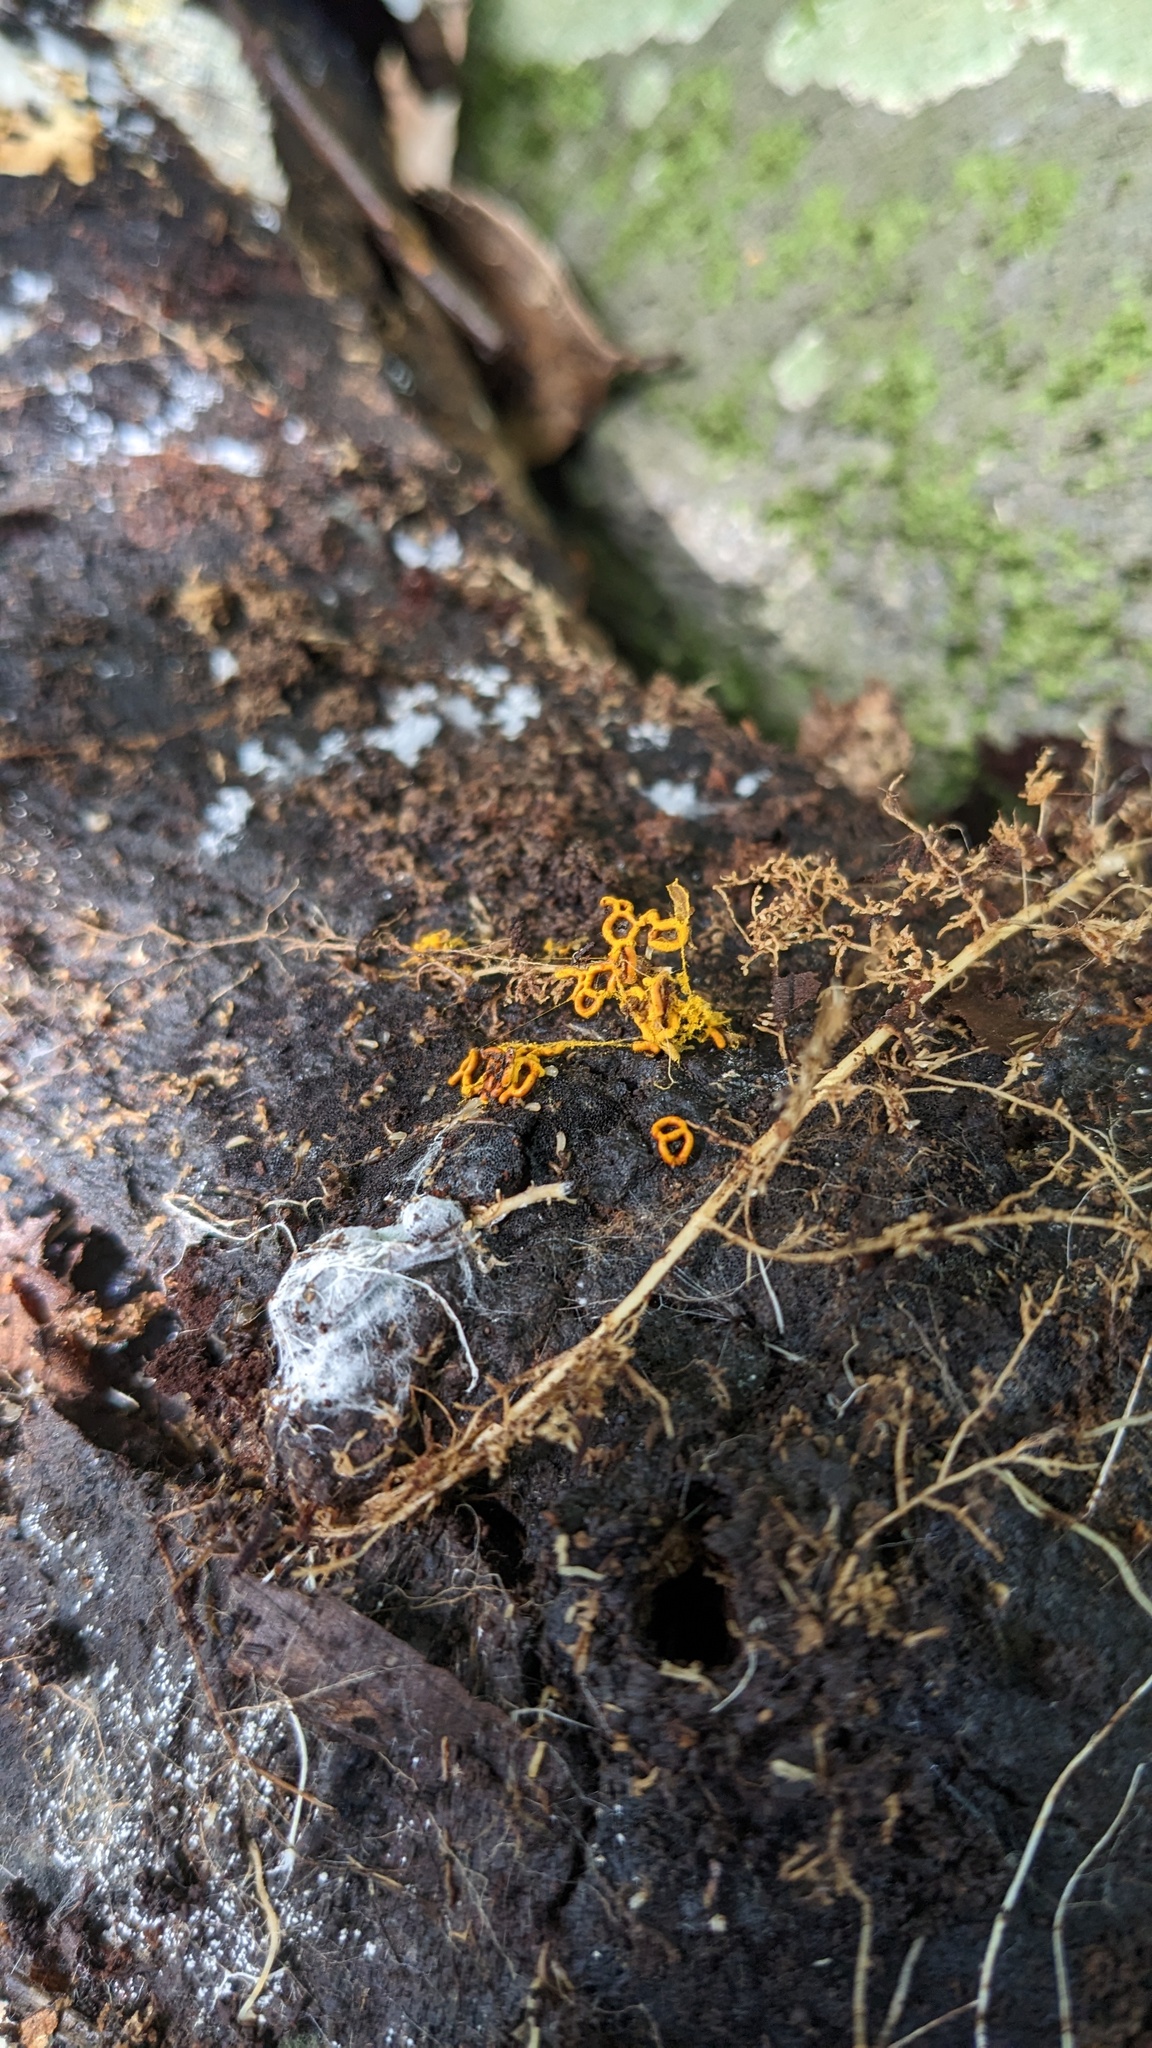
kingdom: Protozoa
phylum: Mycetozoa
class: Myxomycetes
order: Trichiales
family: Arcyriaceae
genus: Hemitrichia
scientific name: Hemitrichia serpula
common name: Pretzel slime mold
